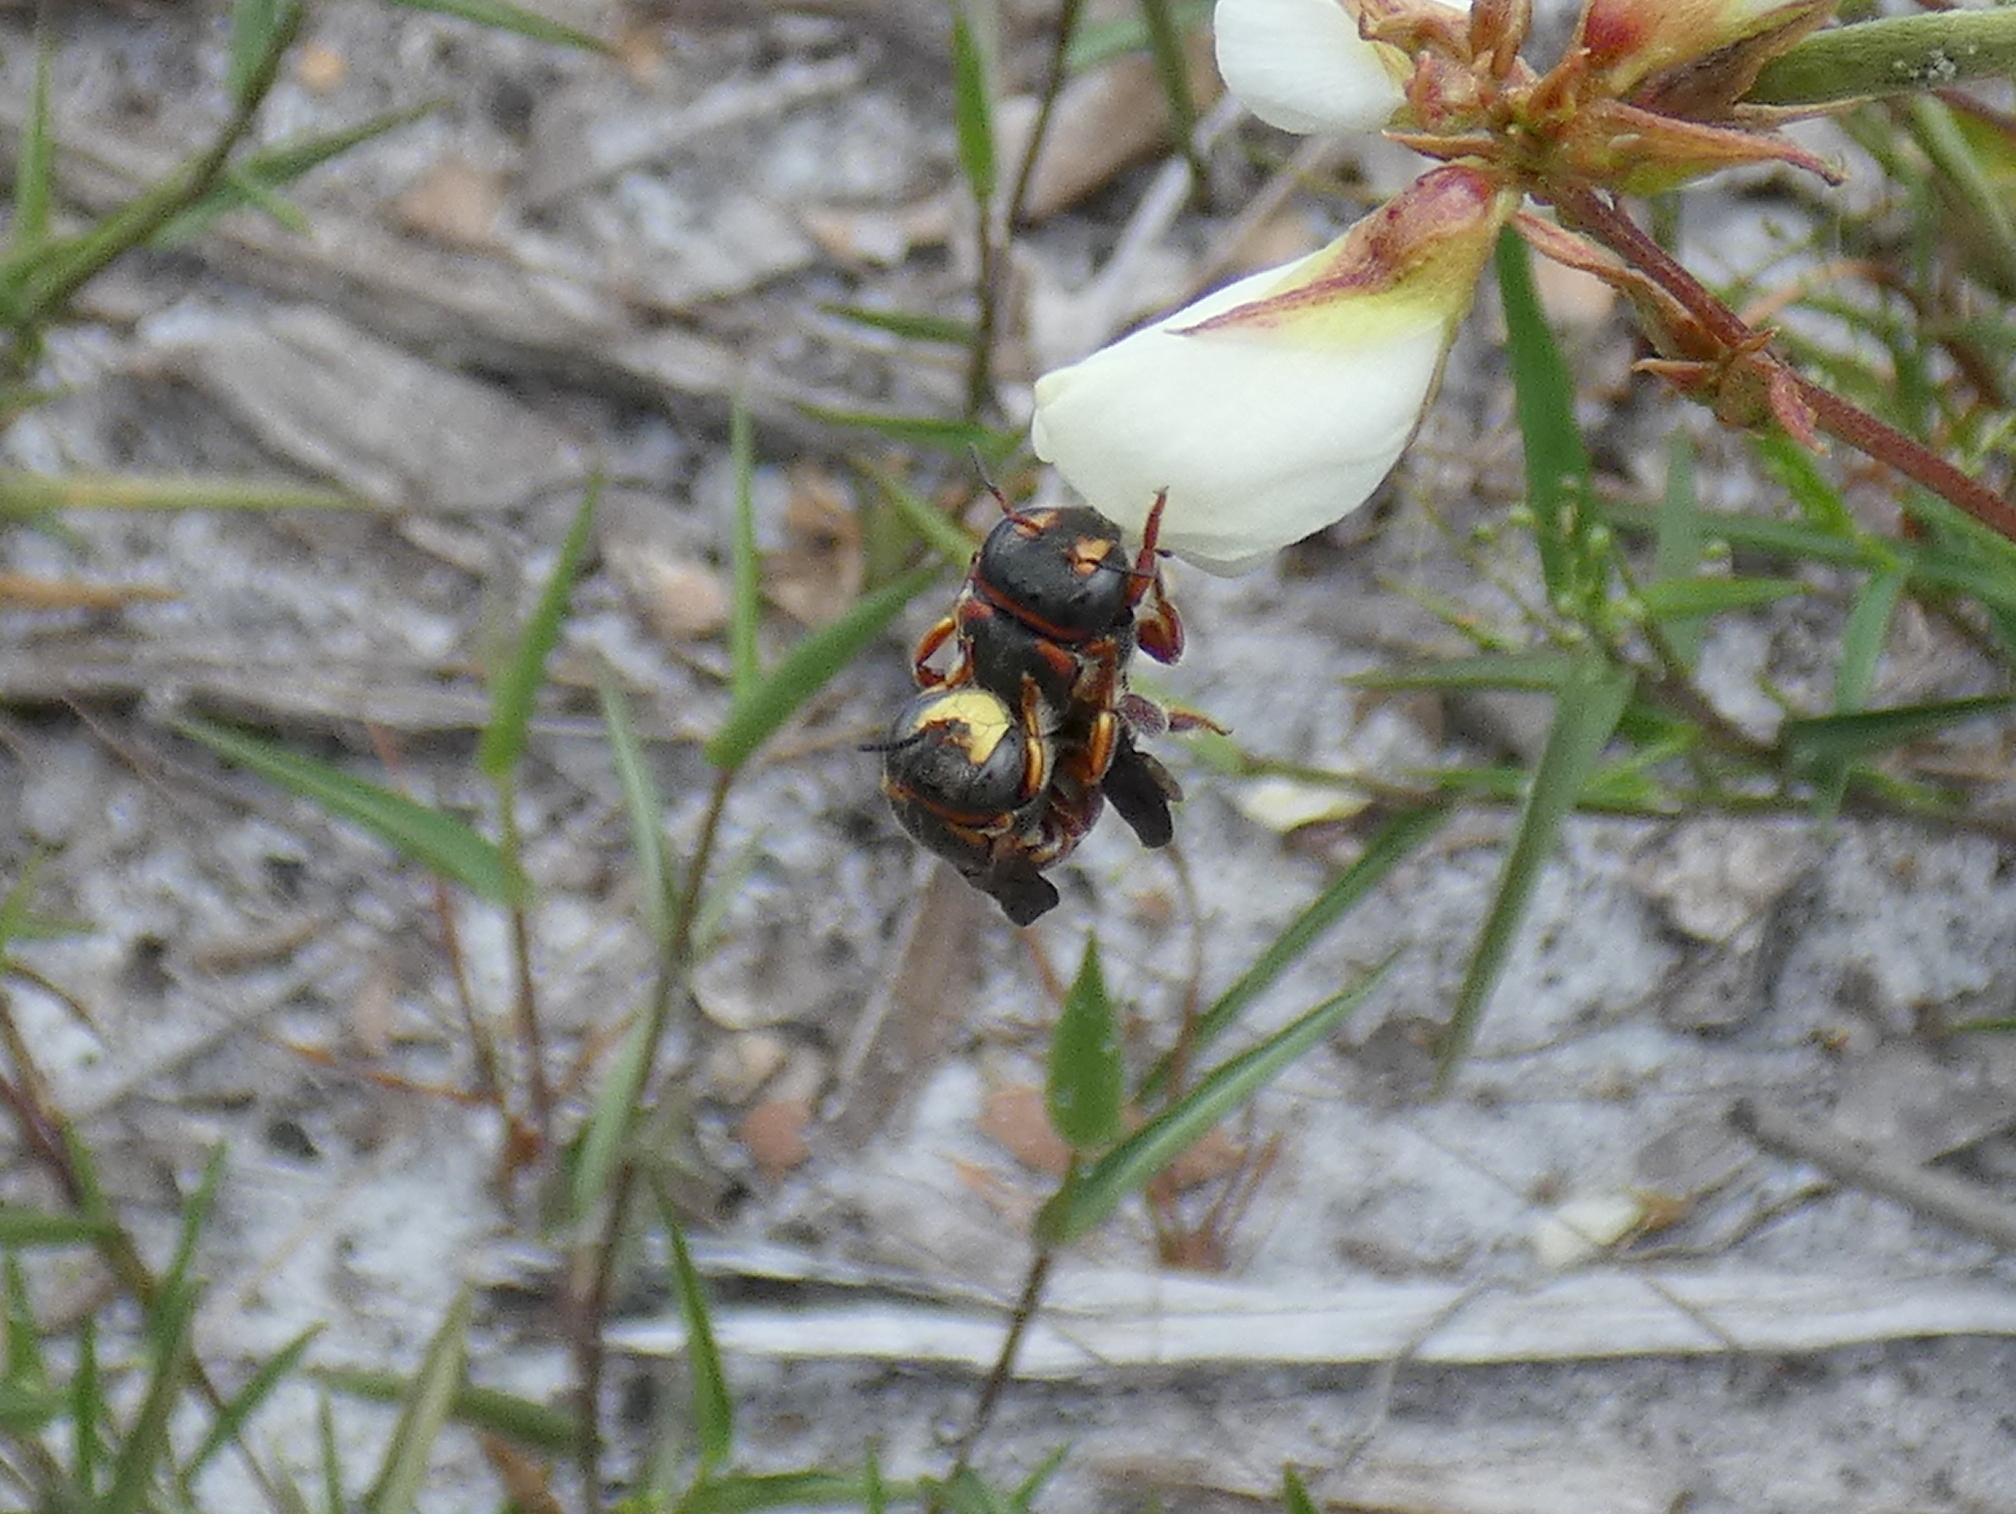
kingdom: Animalia
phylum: Arthropoda
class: Insecta
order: Hymenoptera
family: Megachilidae
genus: Anthidiellum
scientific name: Anthidiellum perplexum
